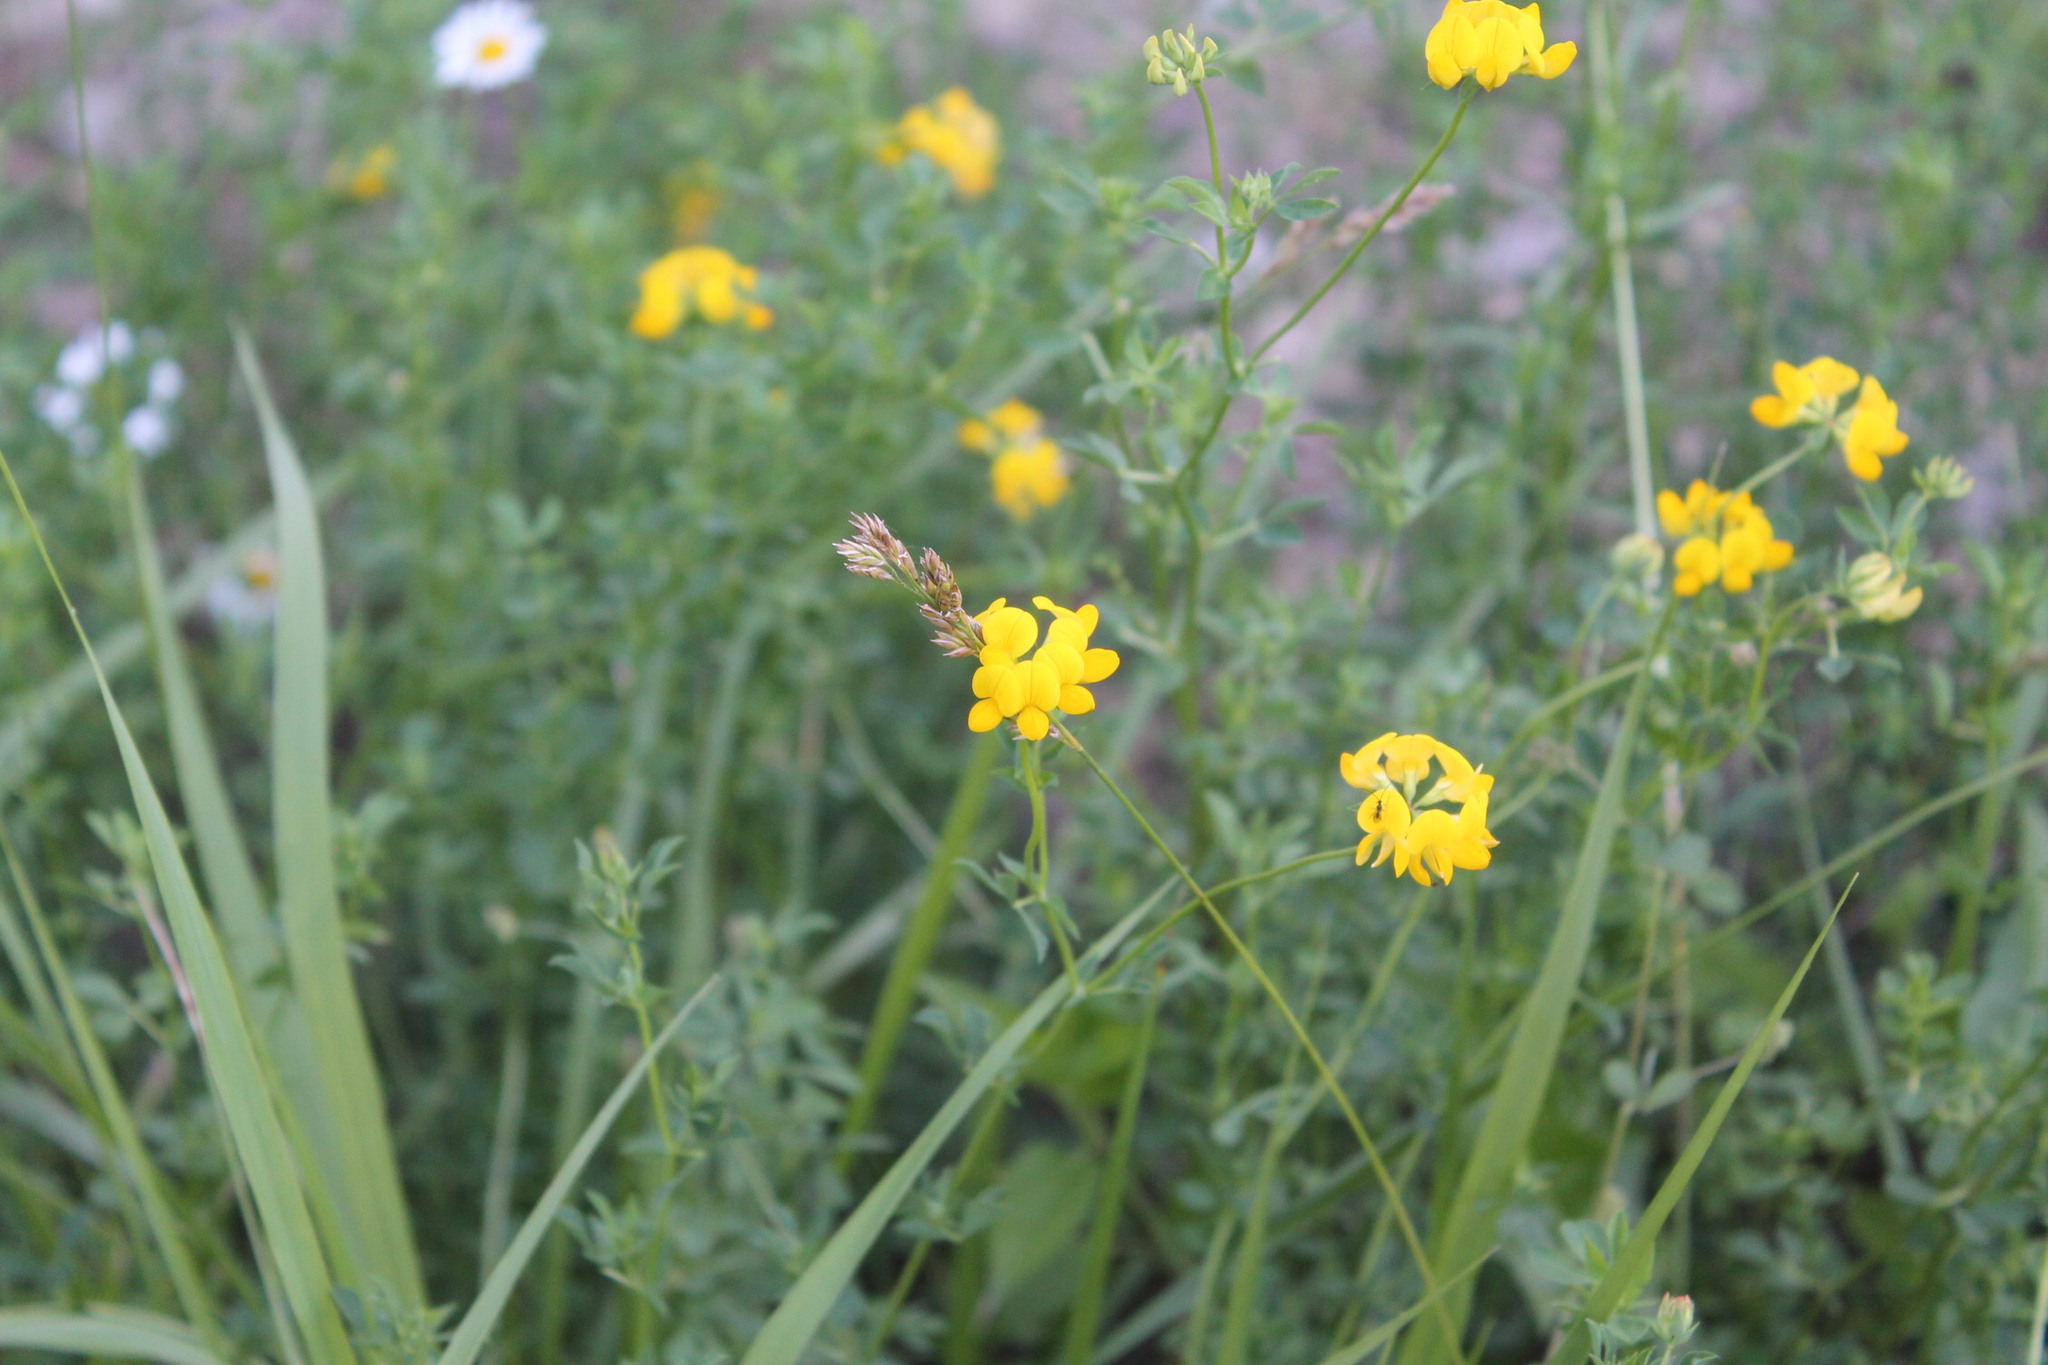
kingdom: Plantae
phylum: Tracheophyta
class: Magnoliopsida
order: Fabales
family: Fabaceae
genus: Lotus
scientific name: Lotus corniculatus
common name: Common bird's-foot-trefoil
